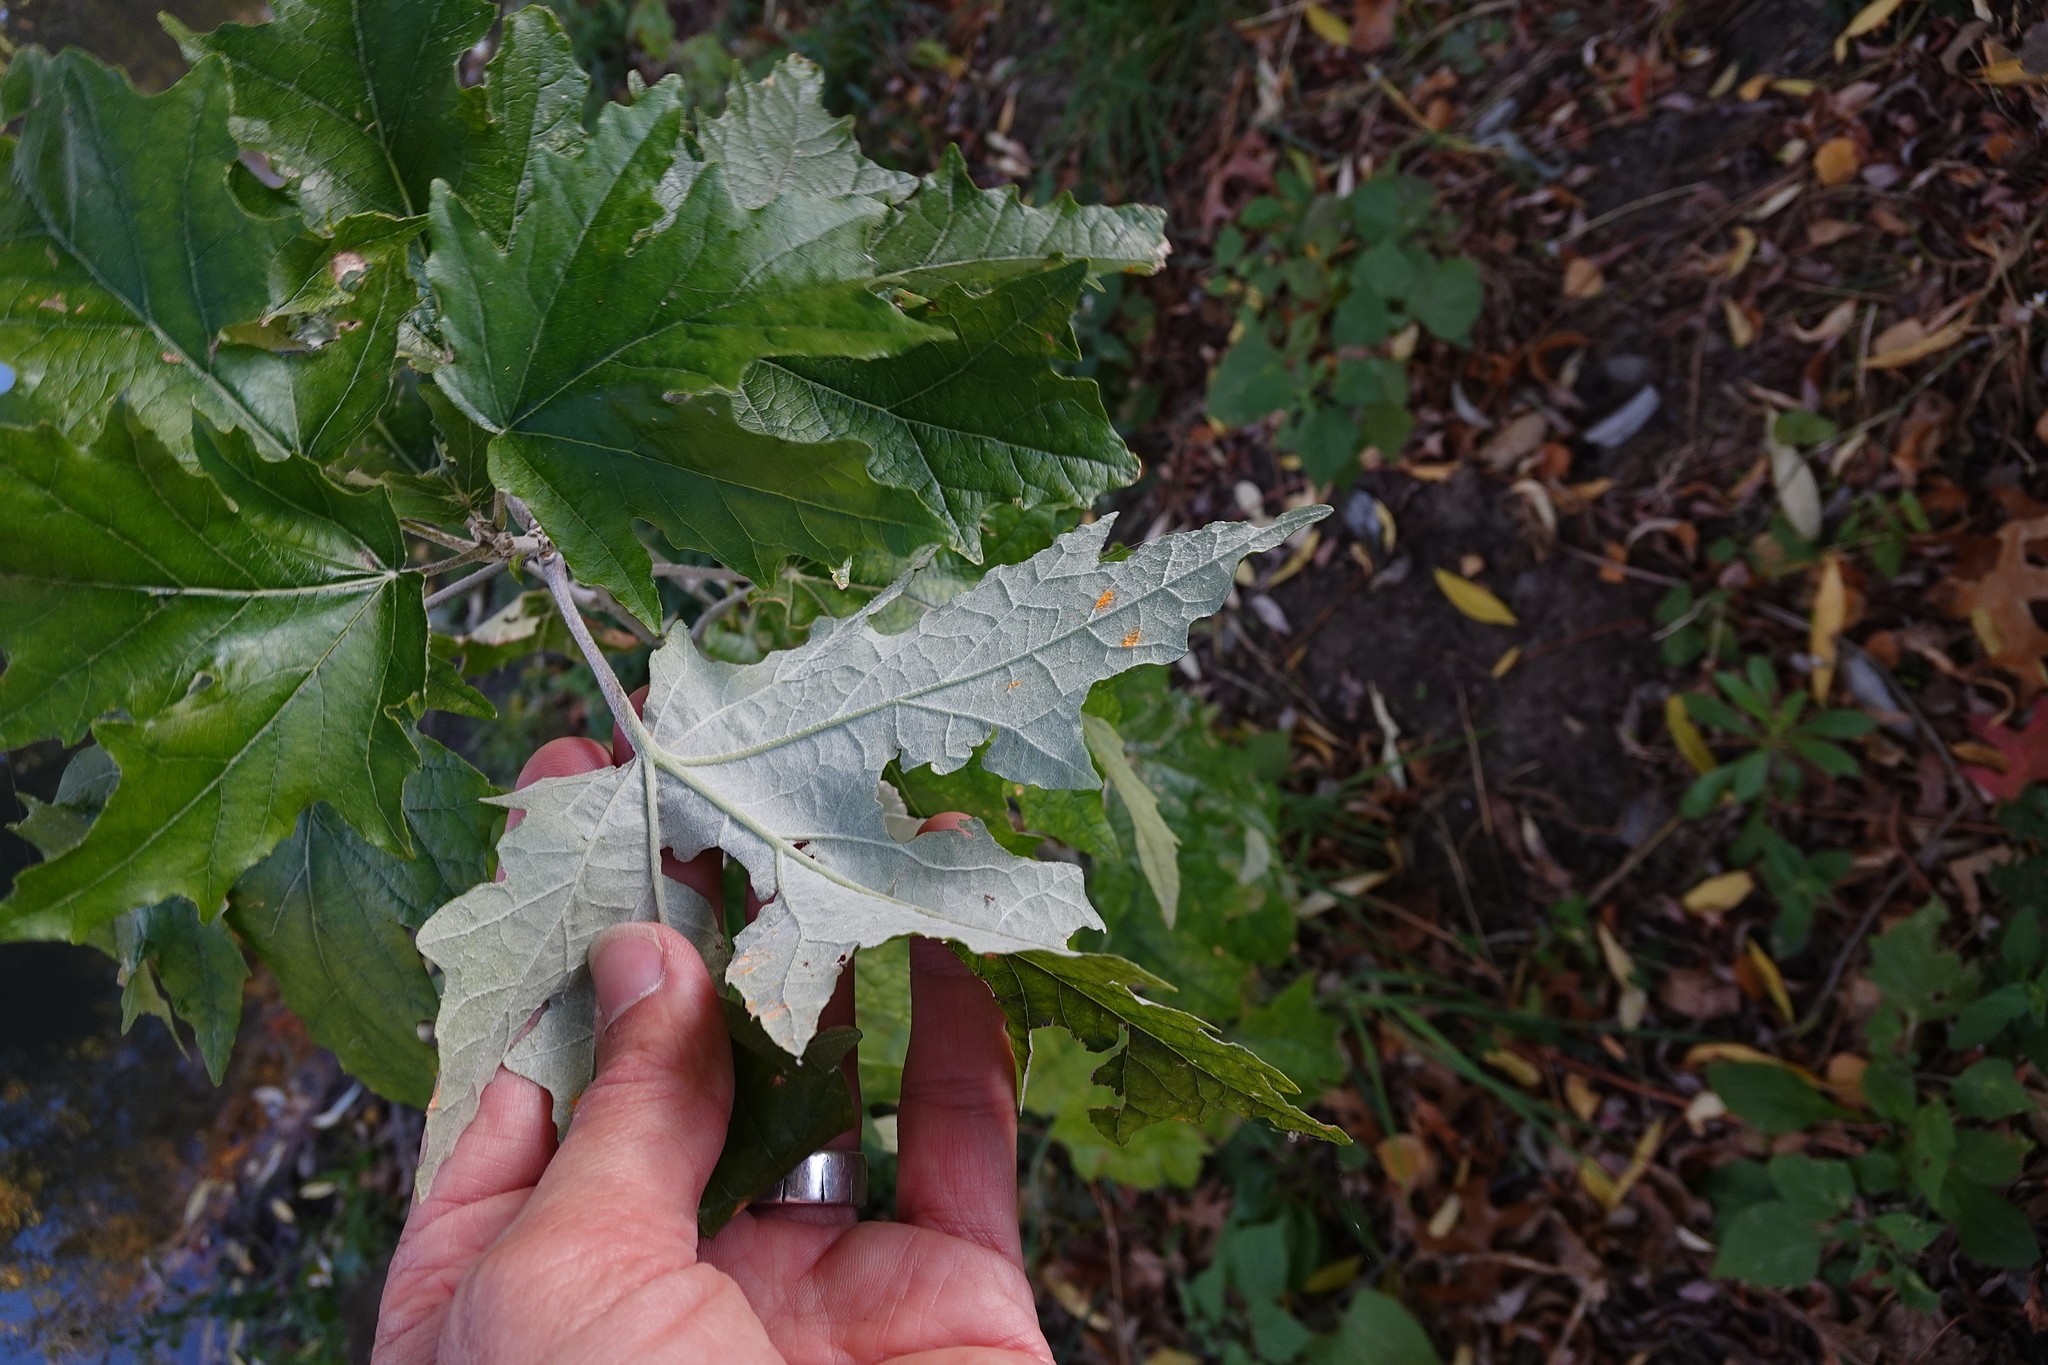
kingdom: Plantae
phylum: Tracheophyta
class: Magnoliopsida
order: Malpighiales
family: Salicaceae
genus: Populus
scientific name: Populus alba
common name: White poplar
